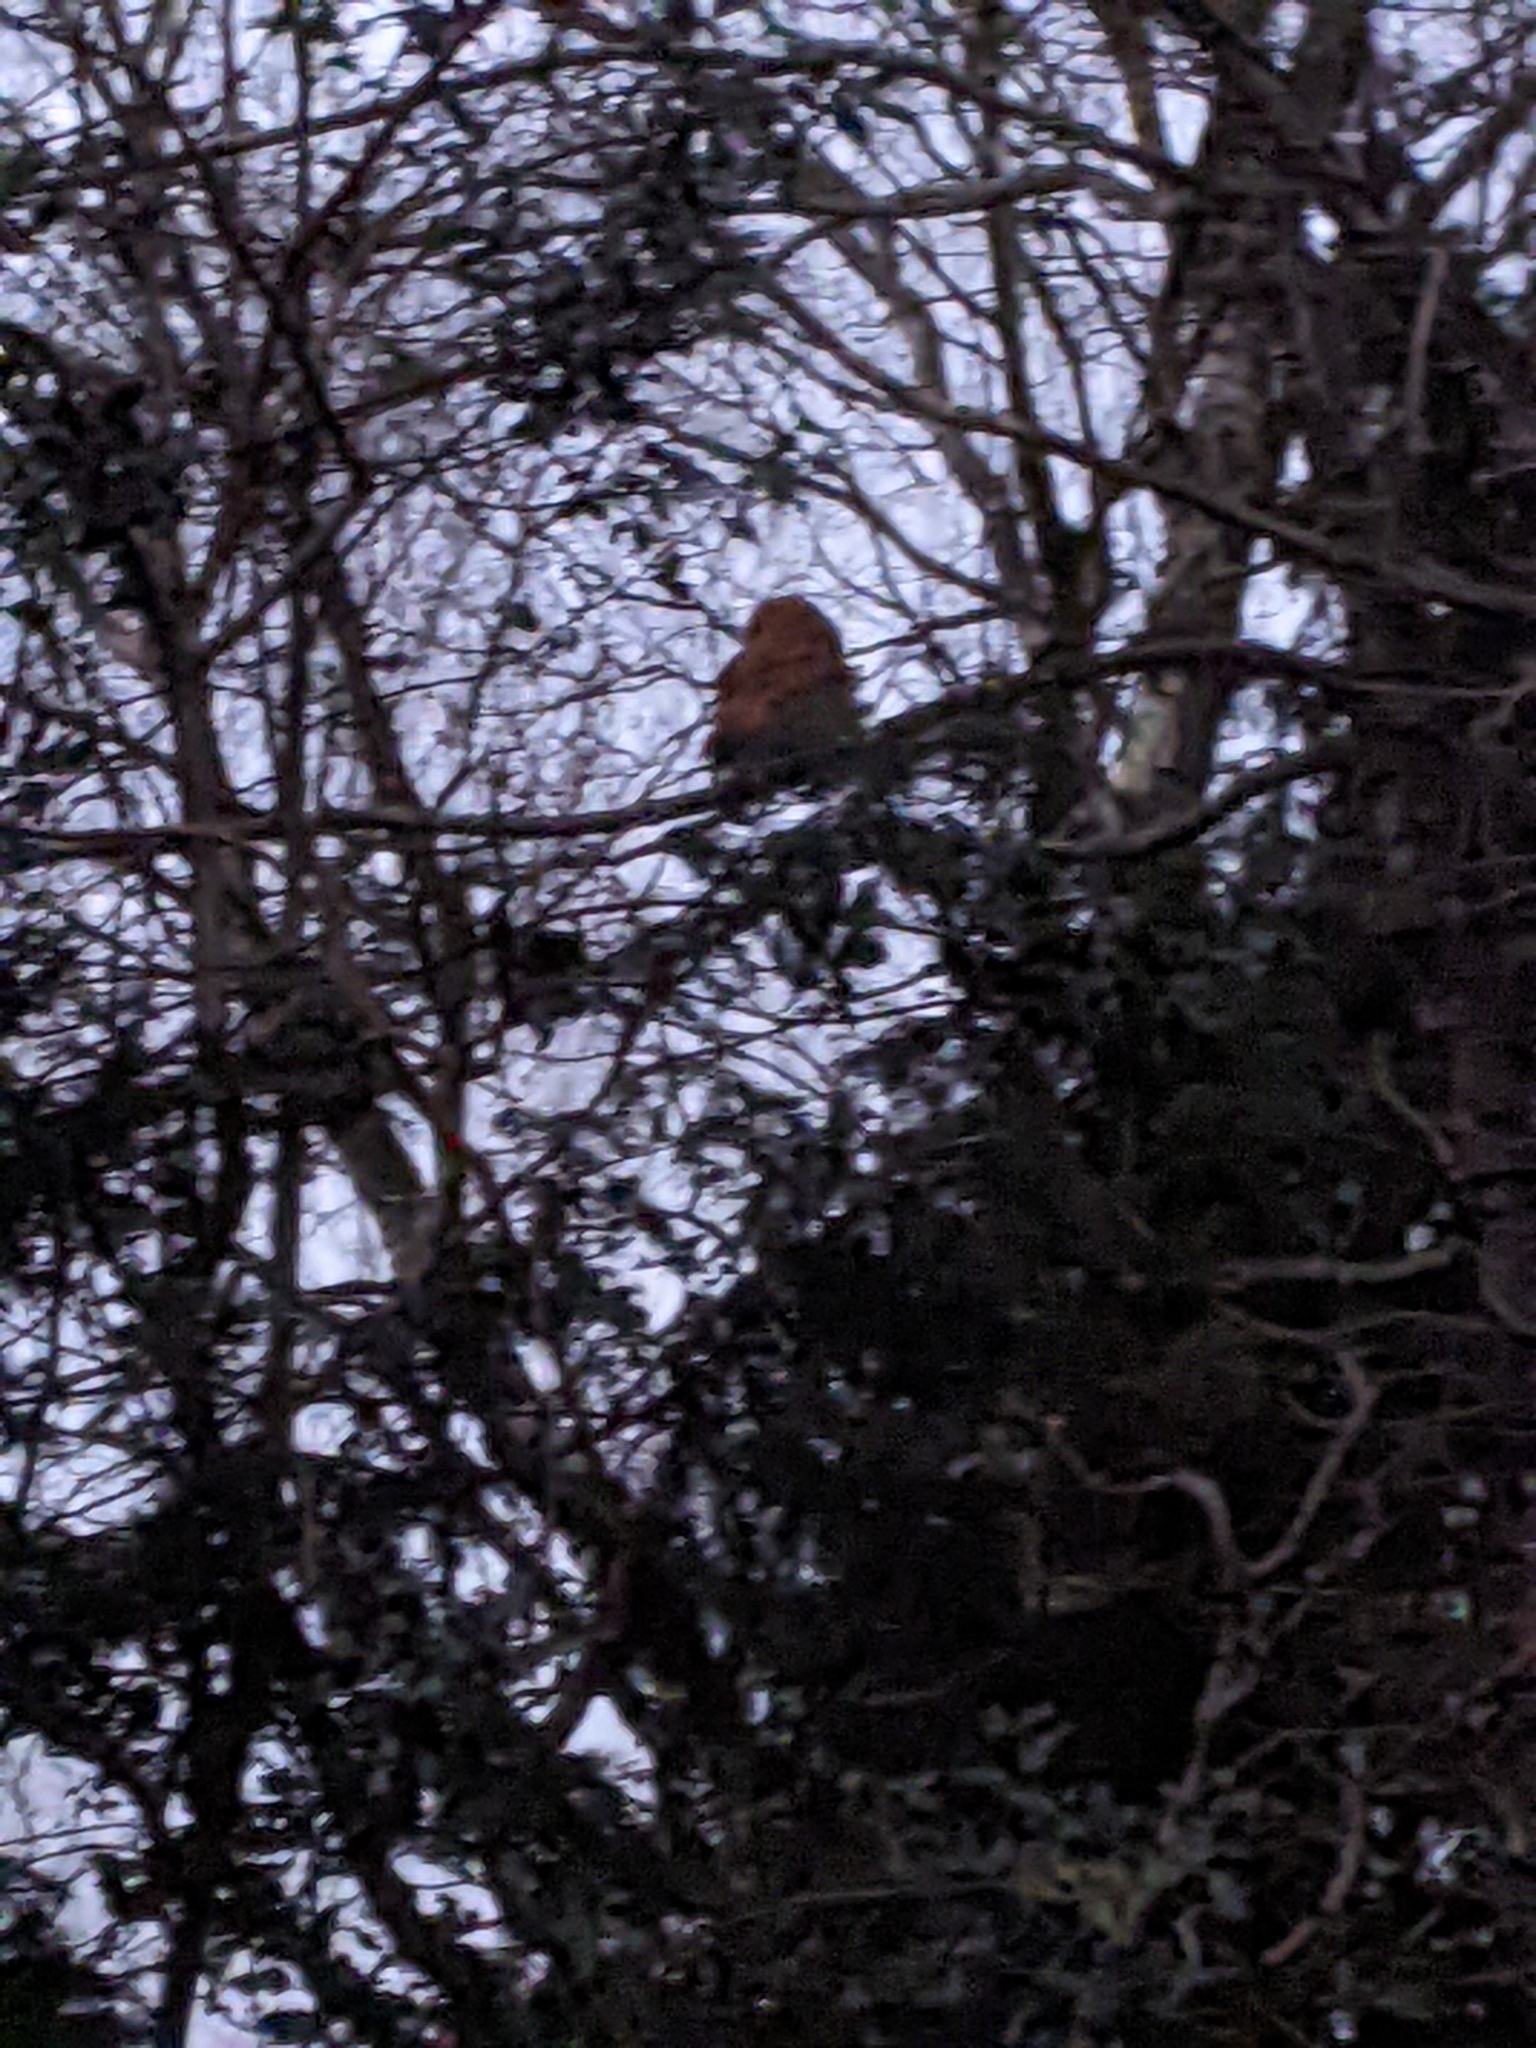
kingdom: Animalia
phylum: Chordata
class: Aves
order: Strigiformes
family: Strigidae
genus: Strix
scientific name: Strix aluco
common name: Tawny owl
